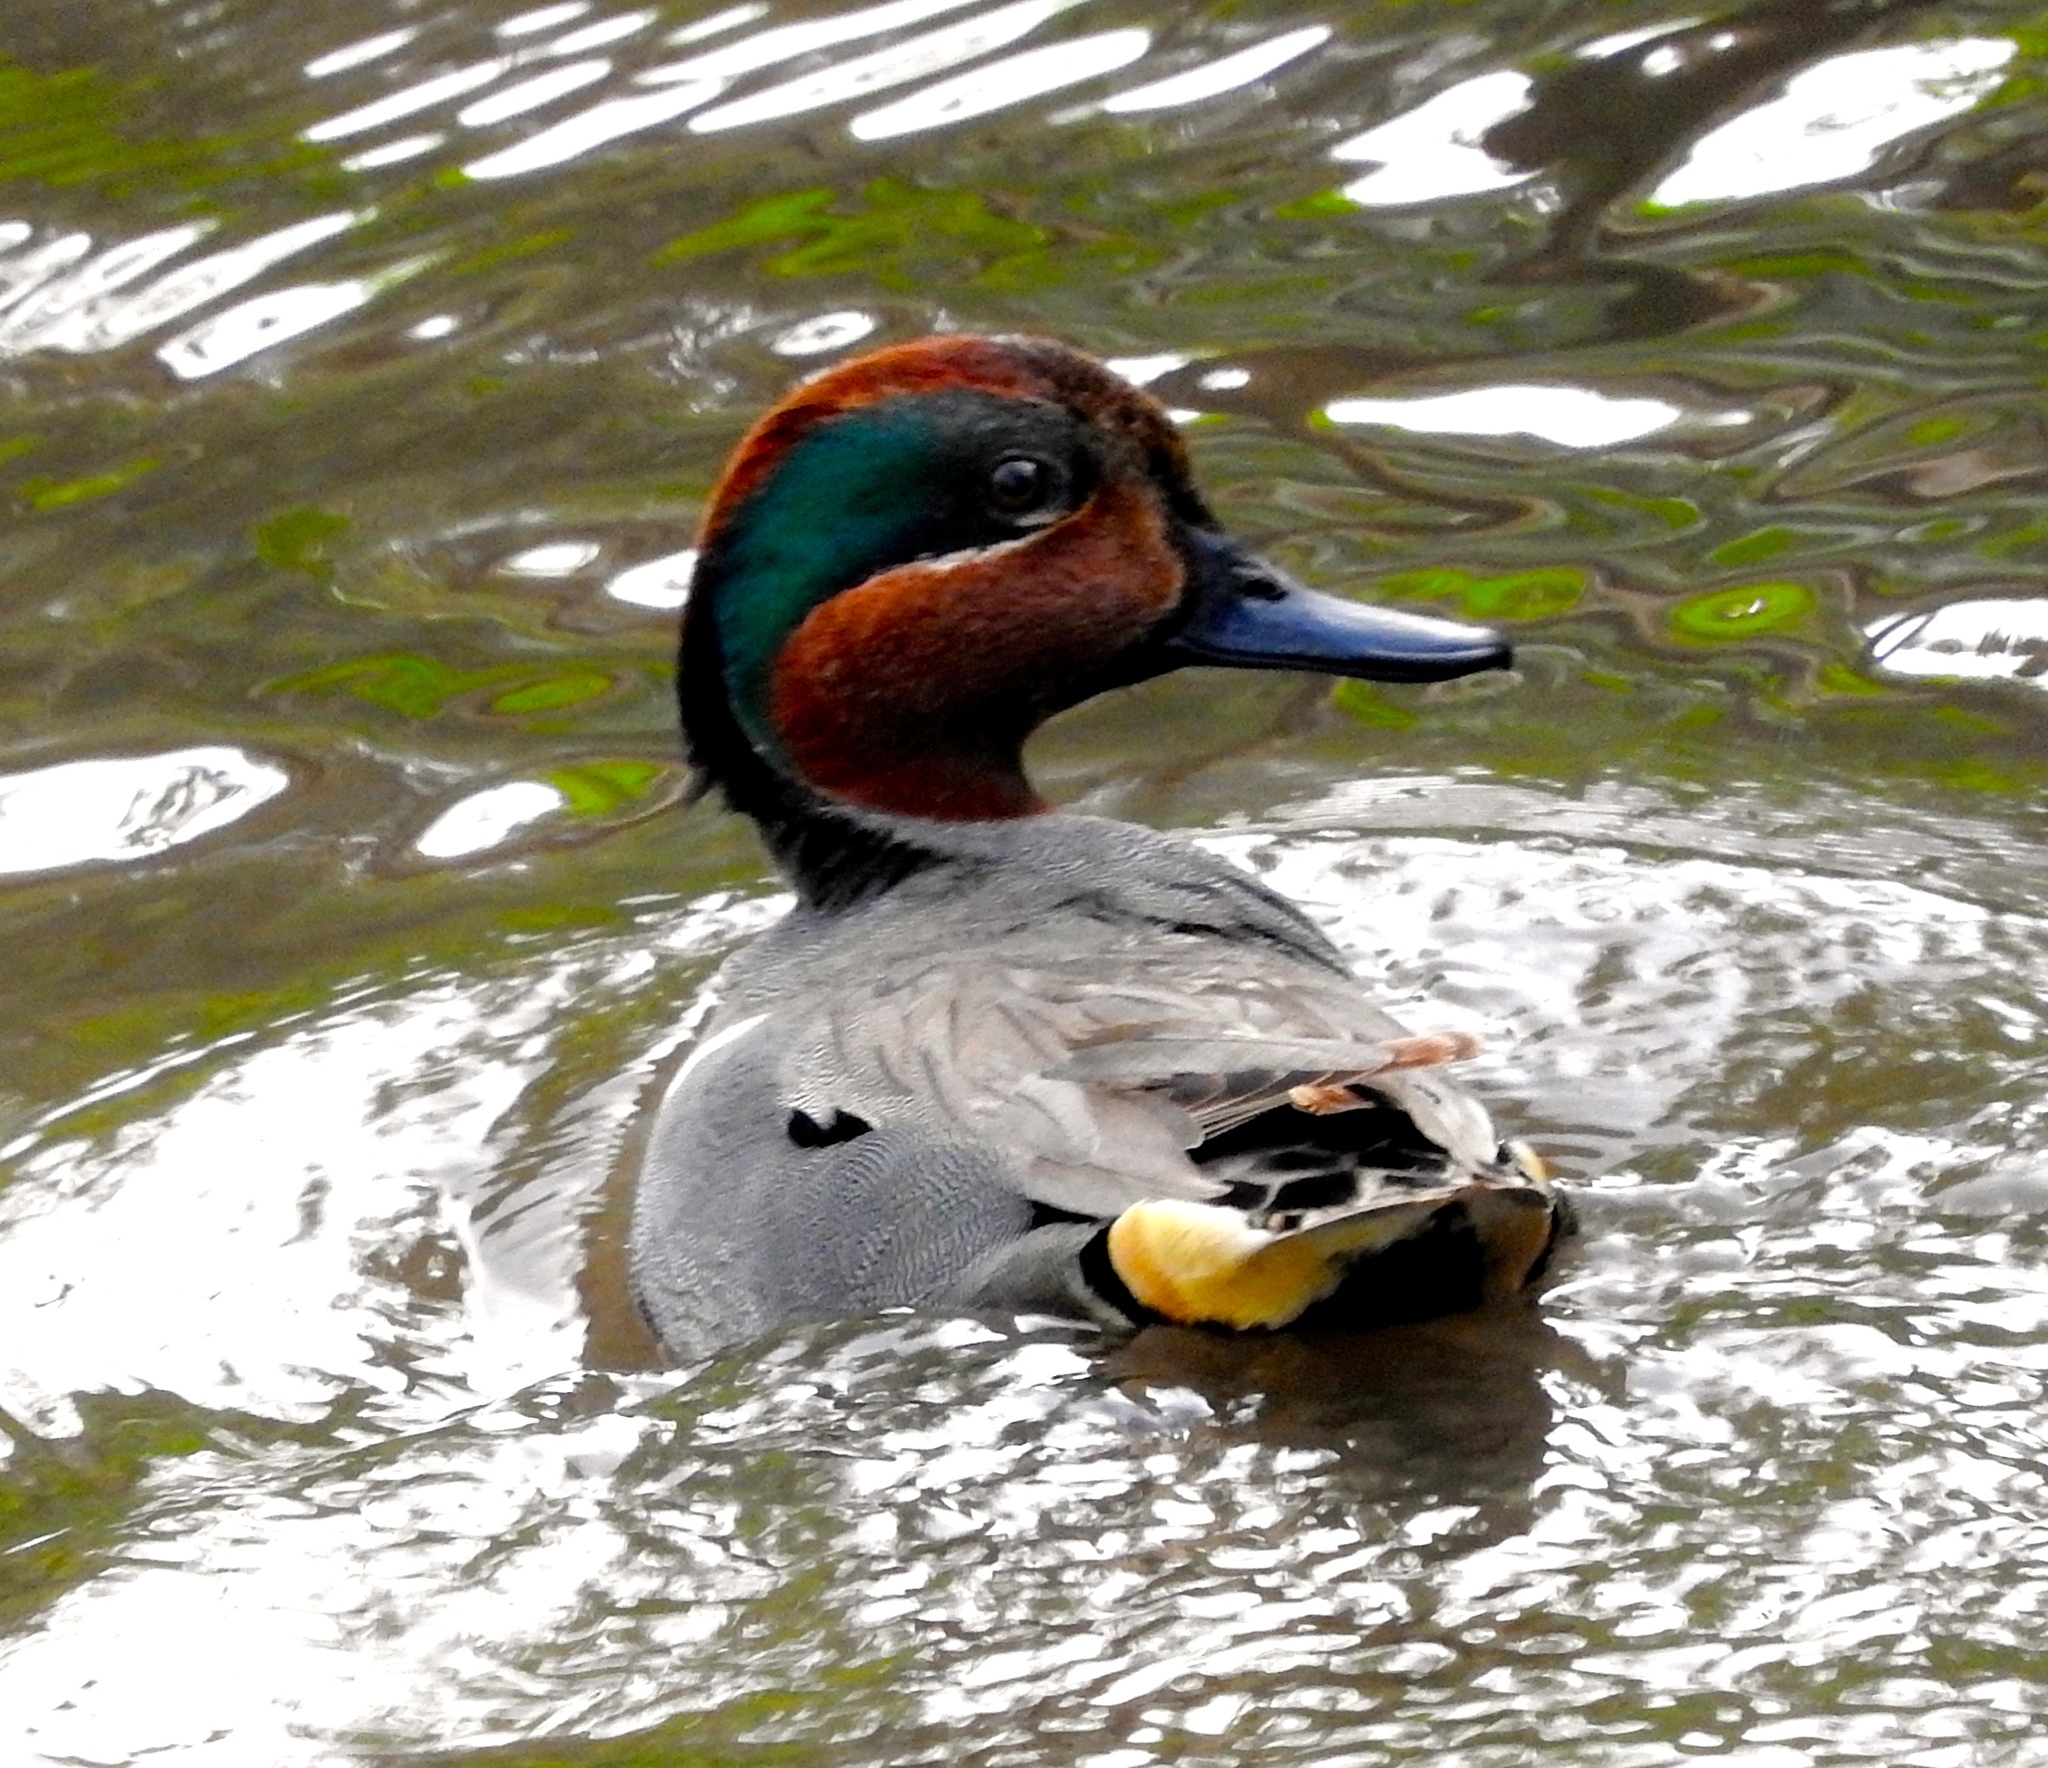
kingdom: Animalia
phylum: Chordata
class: Aves
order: Anseriformes
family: Anatidae
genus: Anas
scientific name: Anas crecca
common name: Eurasian teal
